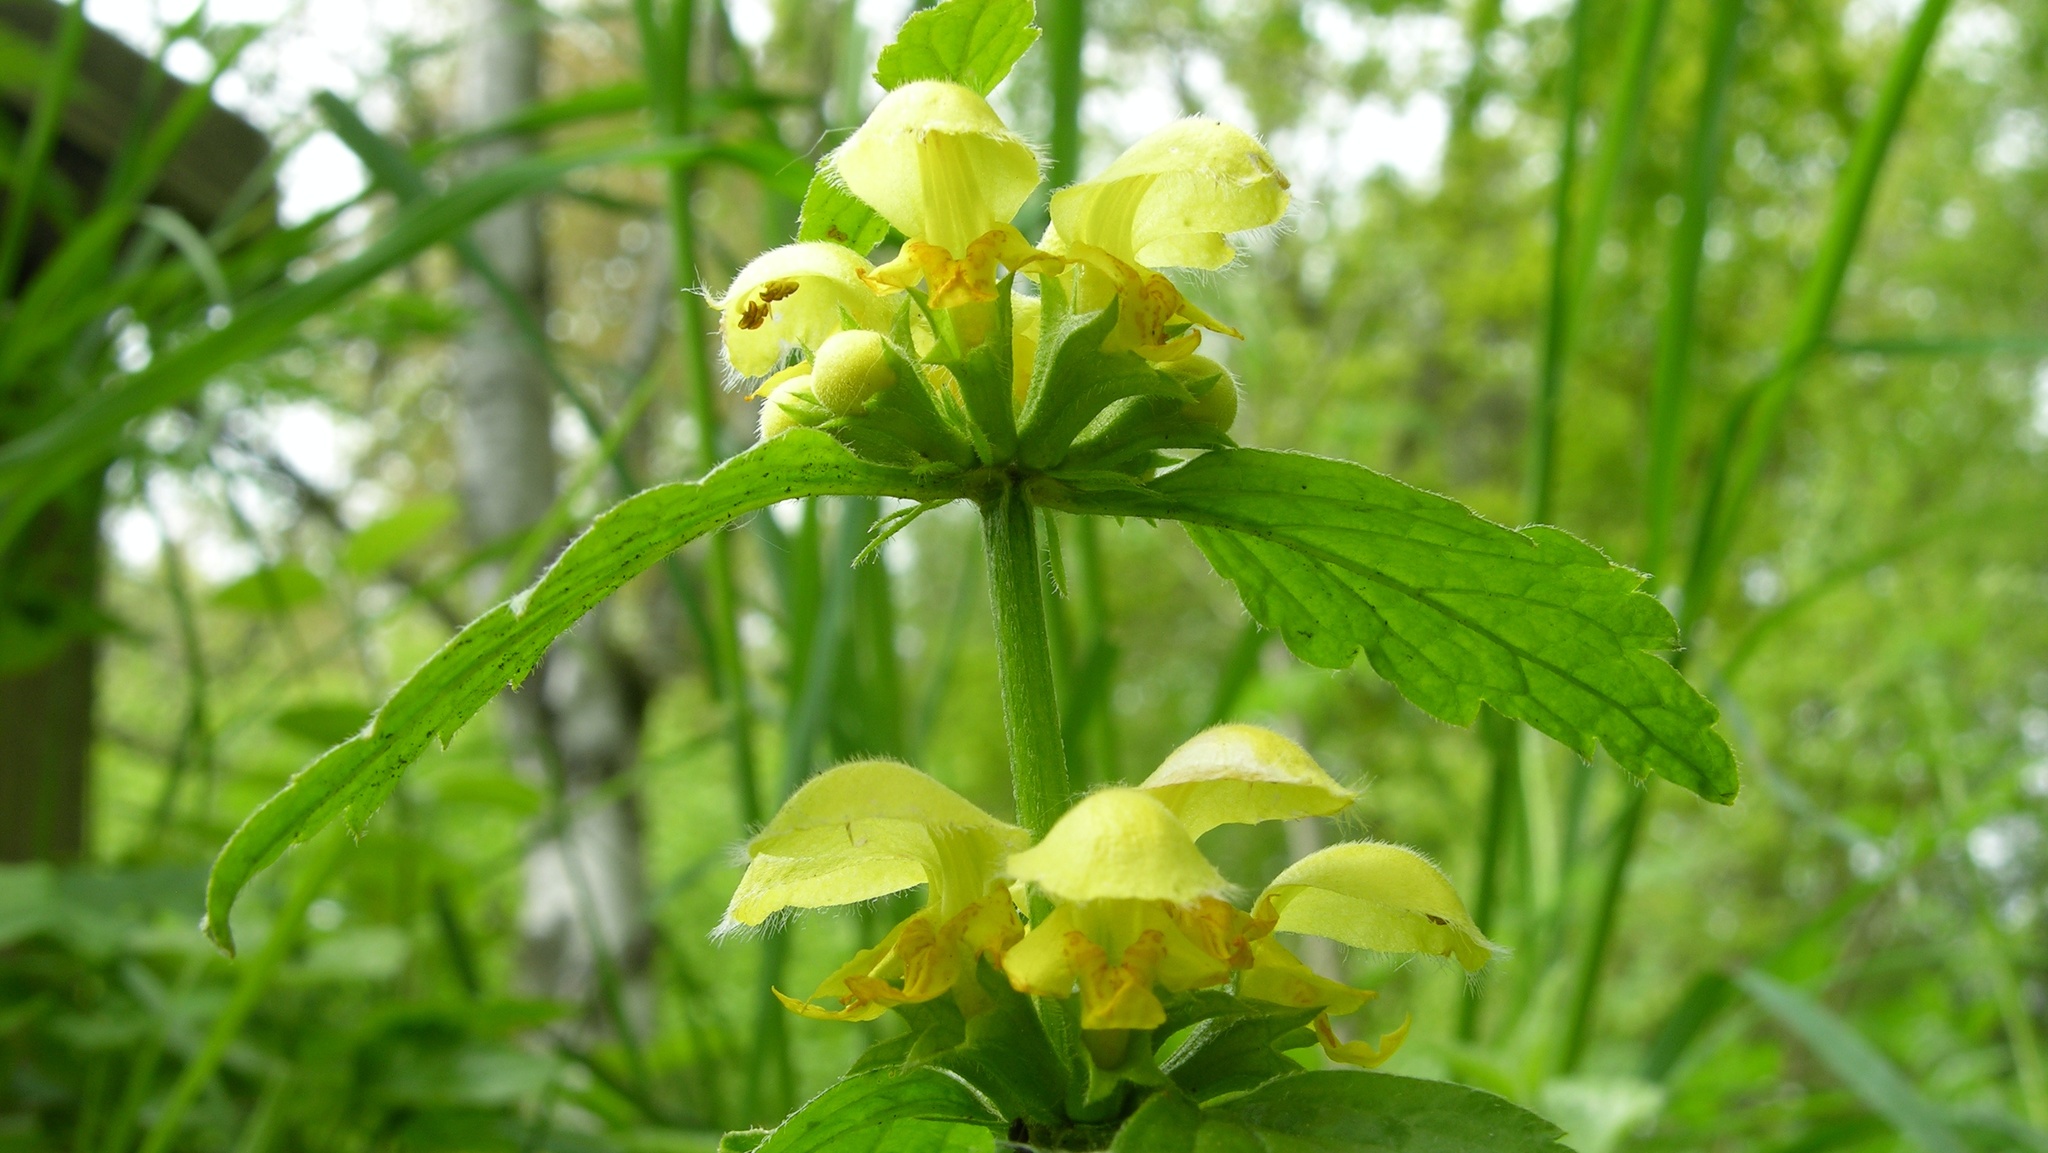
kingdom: Plantae
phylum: Tracheophyta
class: Magnoliopsida
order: Lamiales
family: Lamiaceae
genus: Lamium
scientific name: Lamium galeobdolon
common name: Yellow archangel
